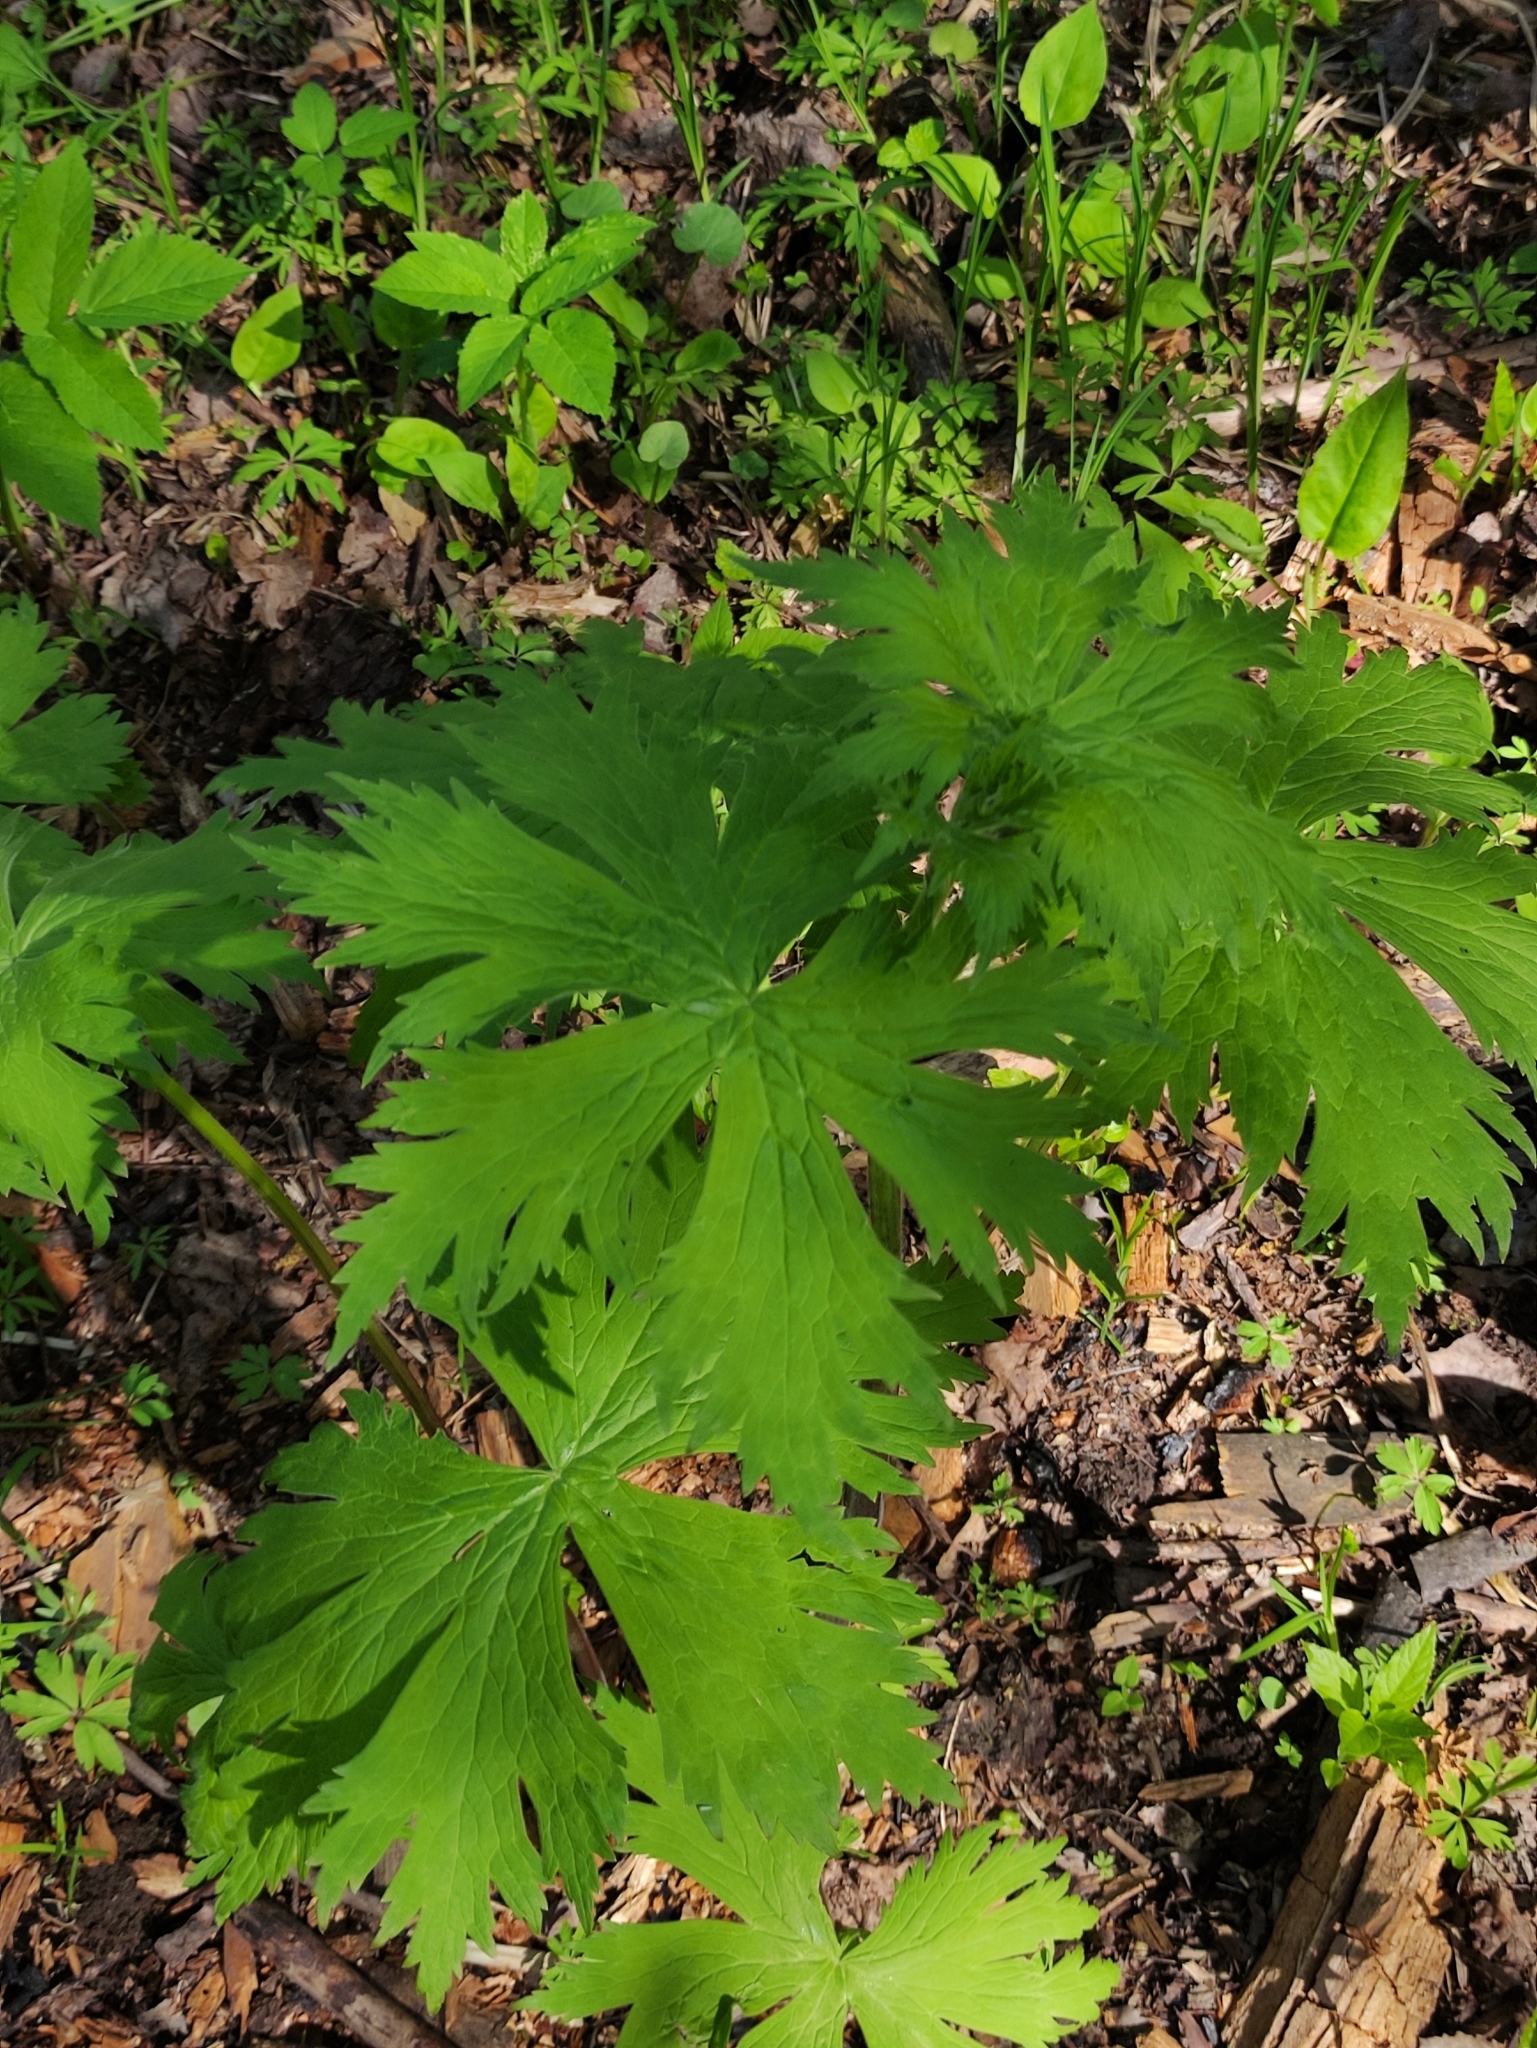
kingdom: Plantae
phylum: Tracheophyta
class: Magnoliopsida
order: Ranunculales
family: Ranunculaceae
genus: Aconitum
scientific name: Aconitum septentrionale
